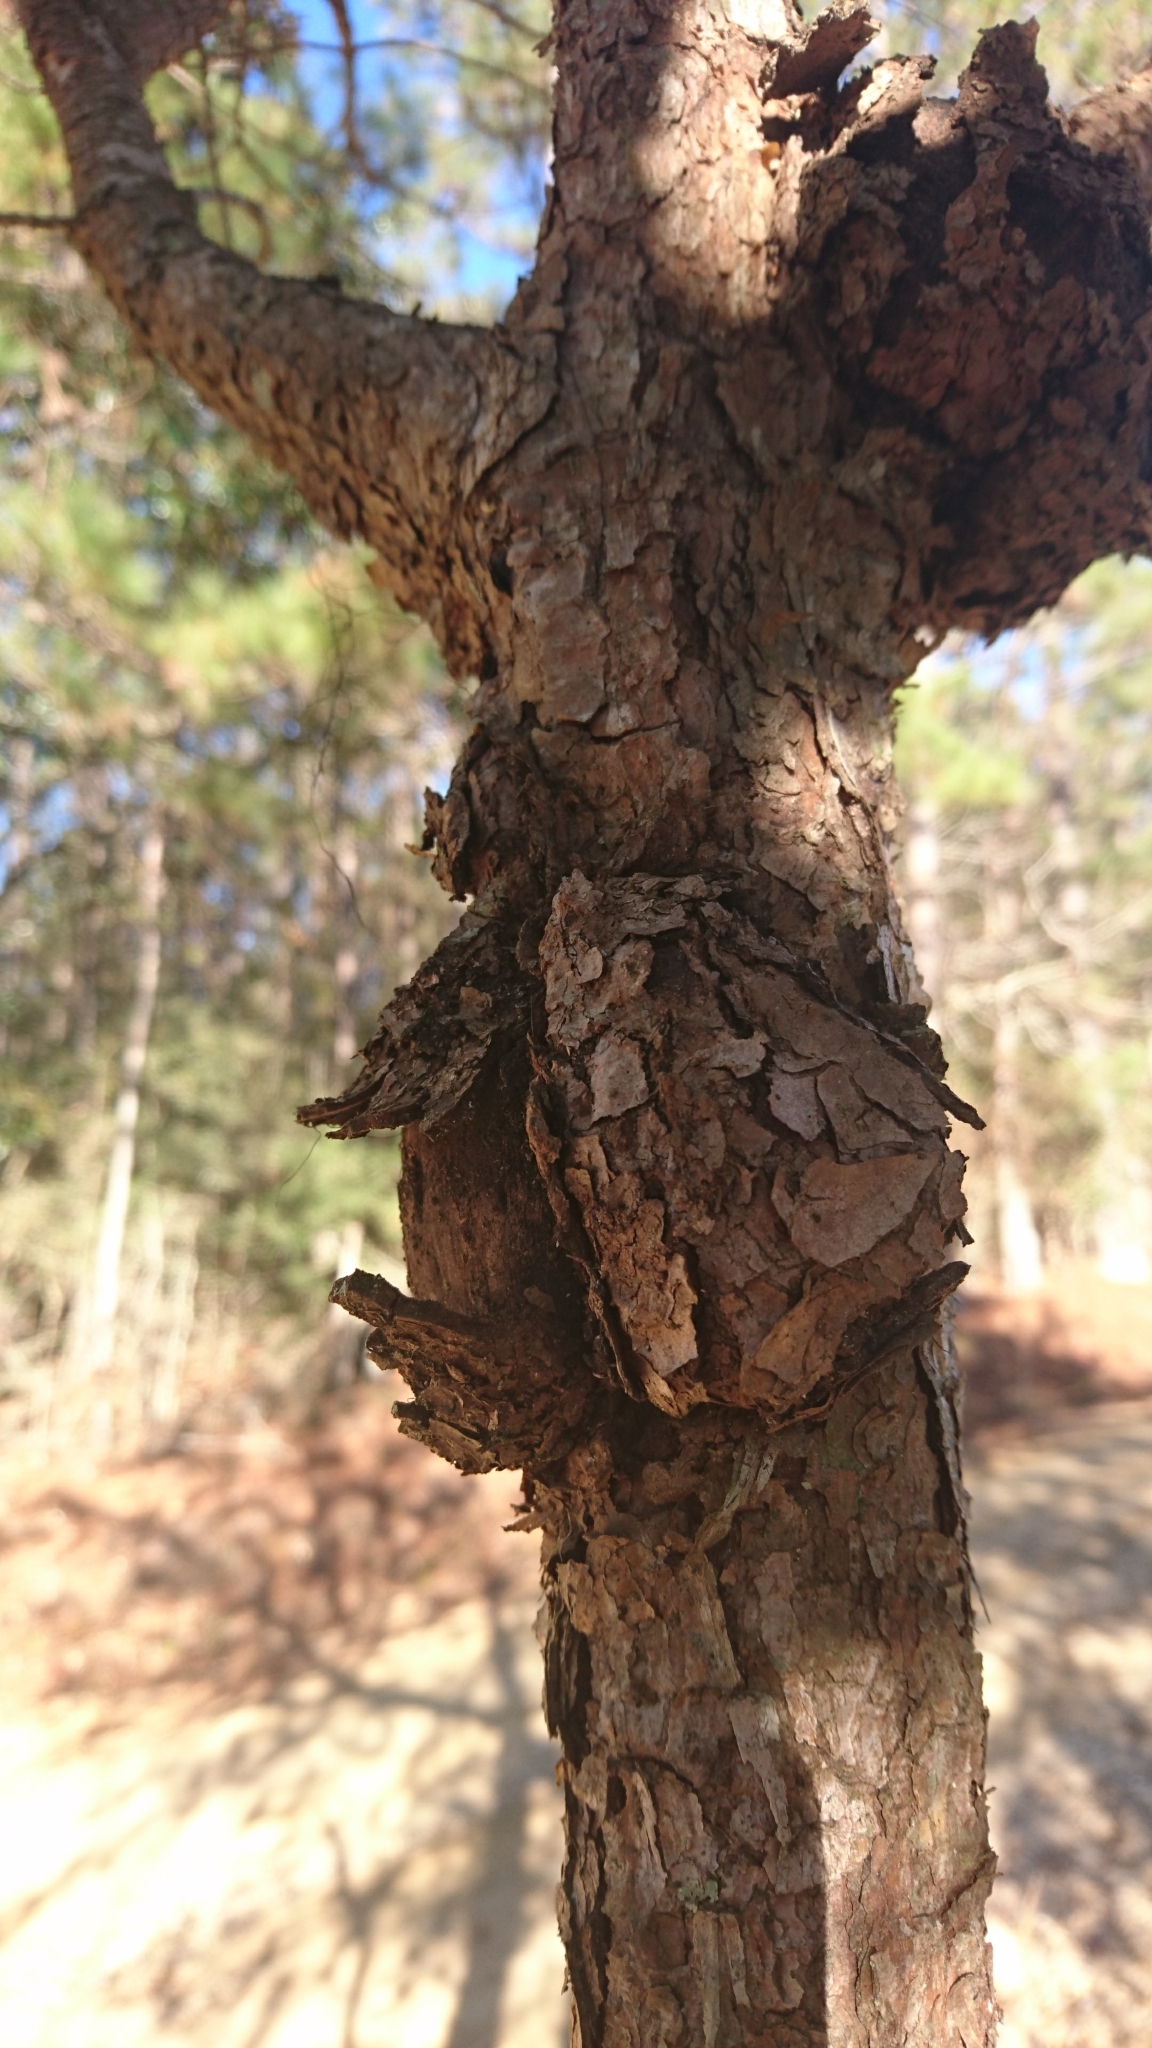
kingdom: Fungi
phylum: Basidiomycota
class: Pucciniomycetes
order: Pucciniales
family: Cronartiaceae
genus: Cronartium
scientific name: Cronartium fusiforme
